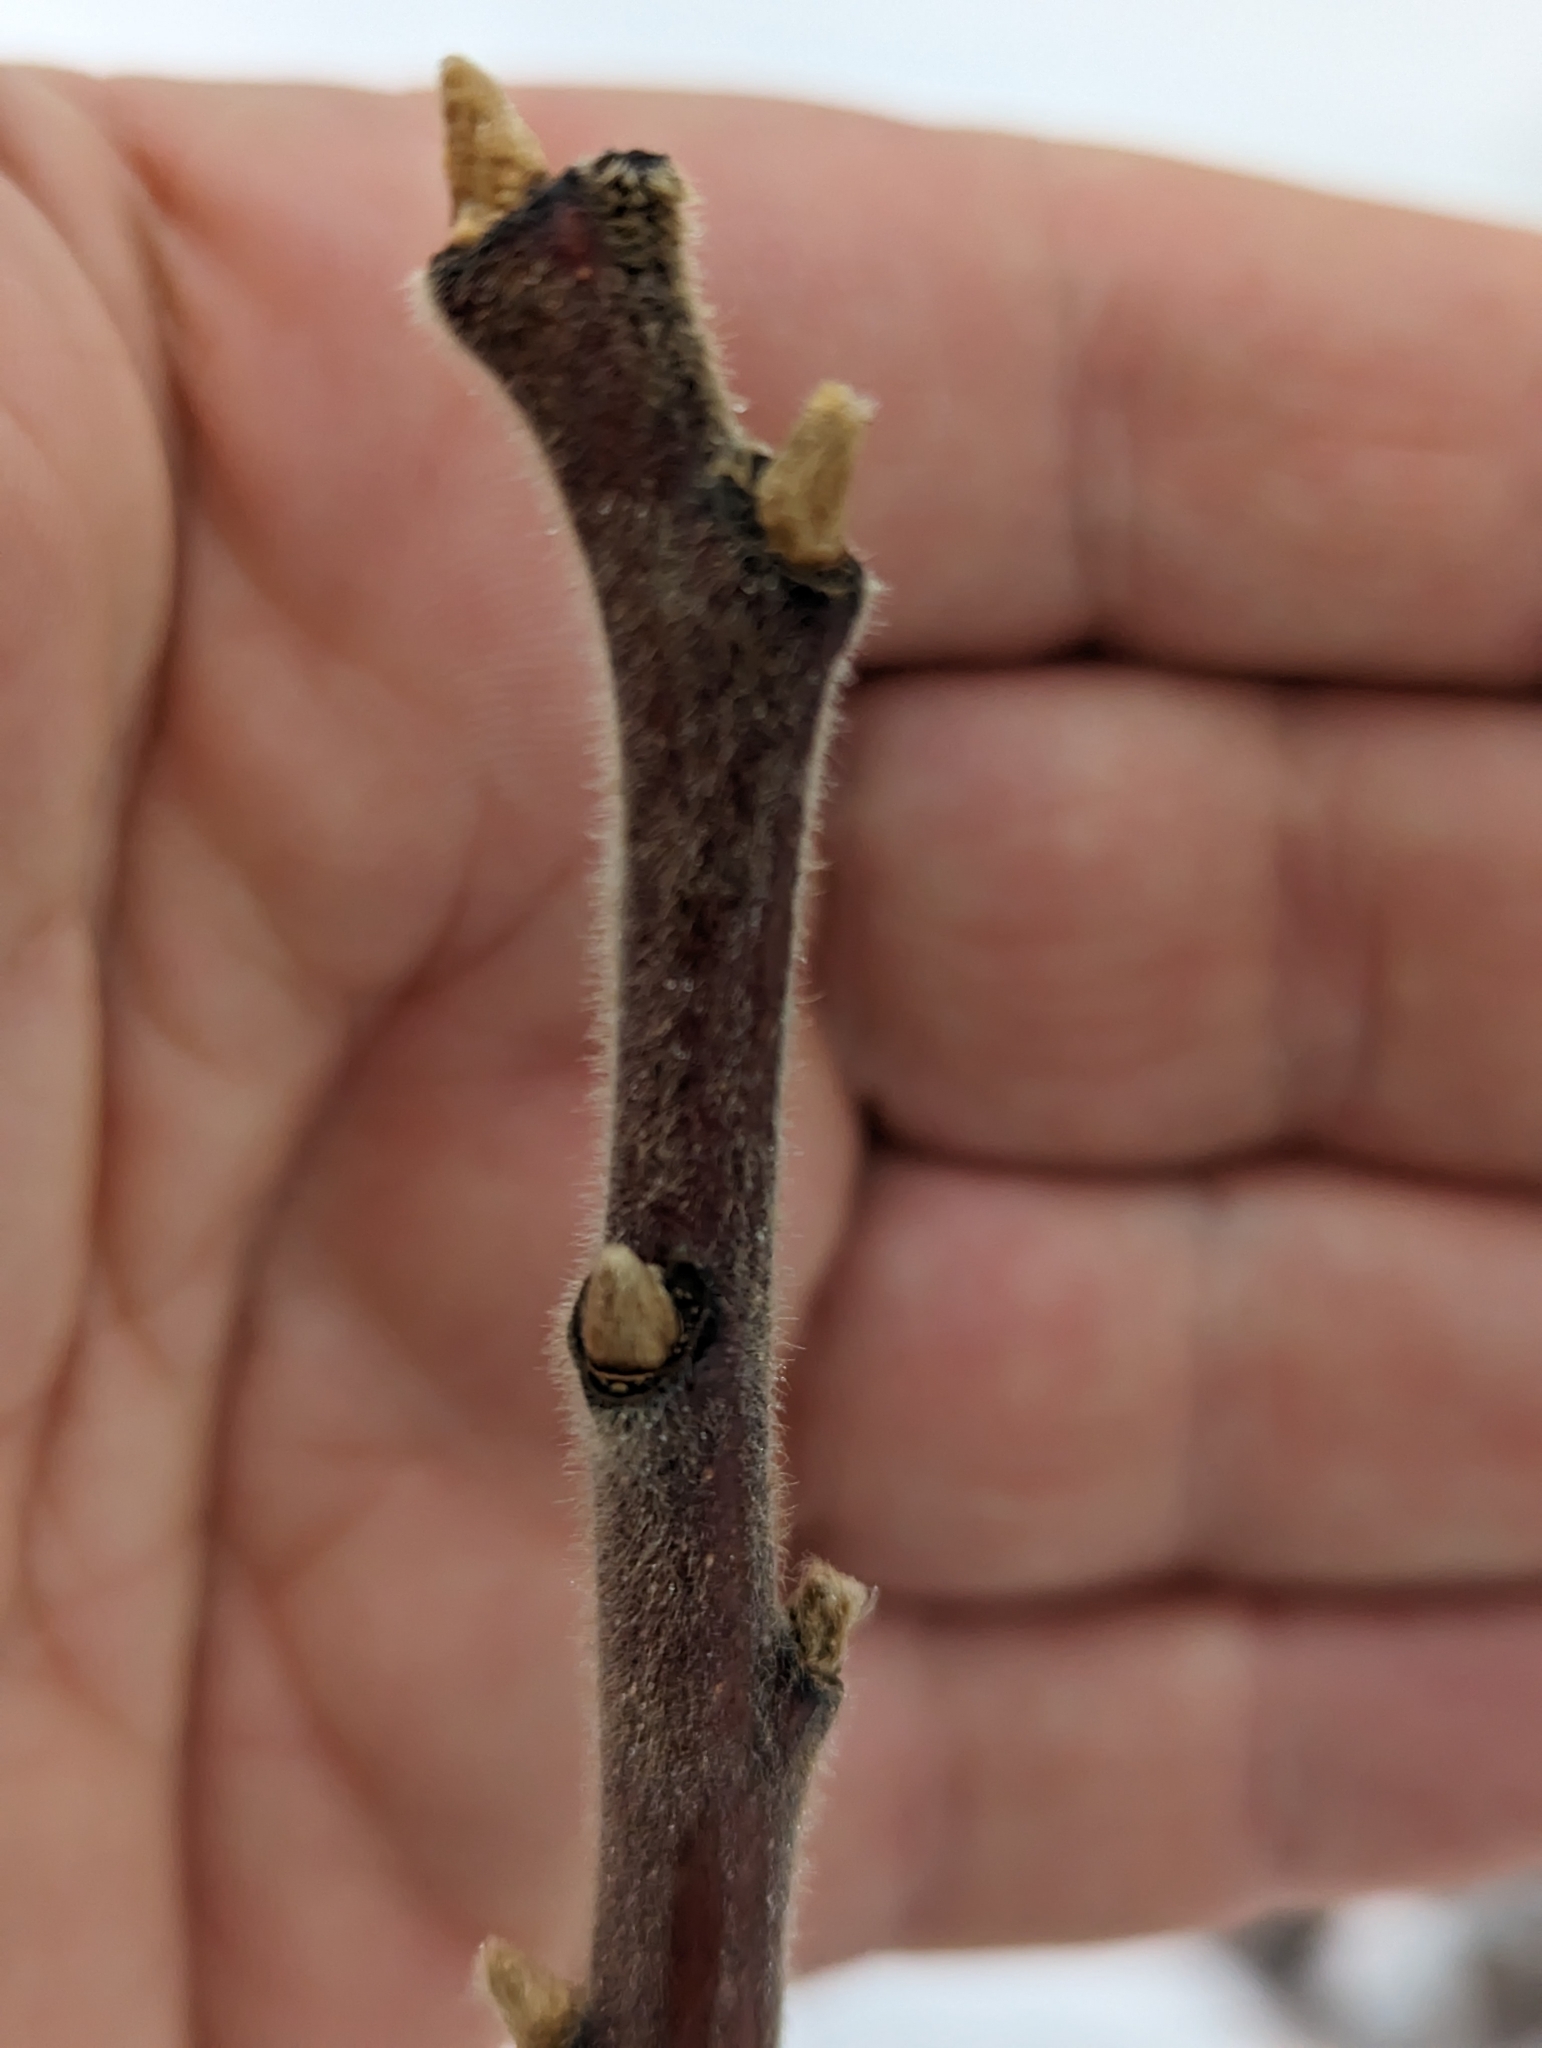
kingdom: Plantae
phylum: Tracheophyta
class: Magnoliopsida
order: Sapindales
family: Anacardiaceae
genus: Rhus
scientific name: Rhus typhina
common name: Staghorn sumac
